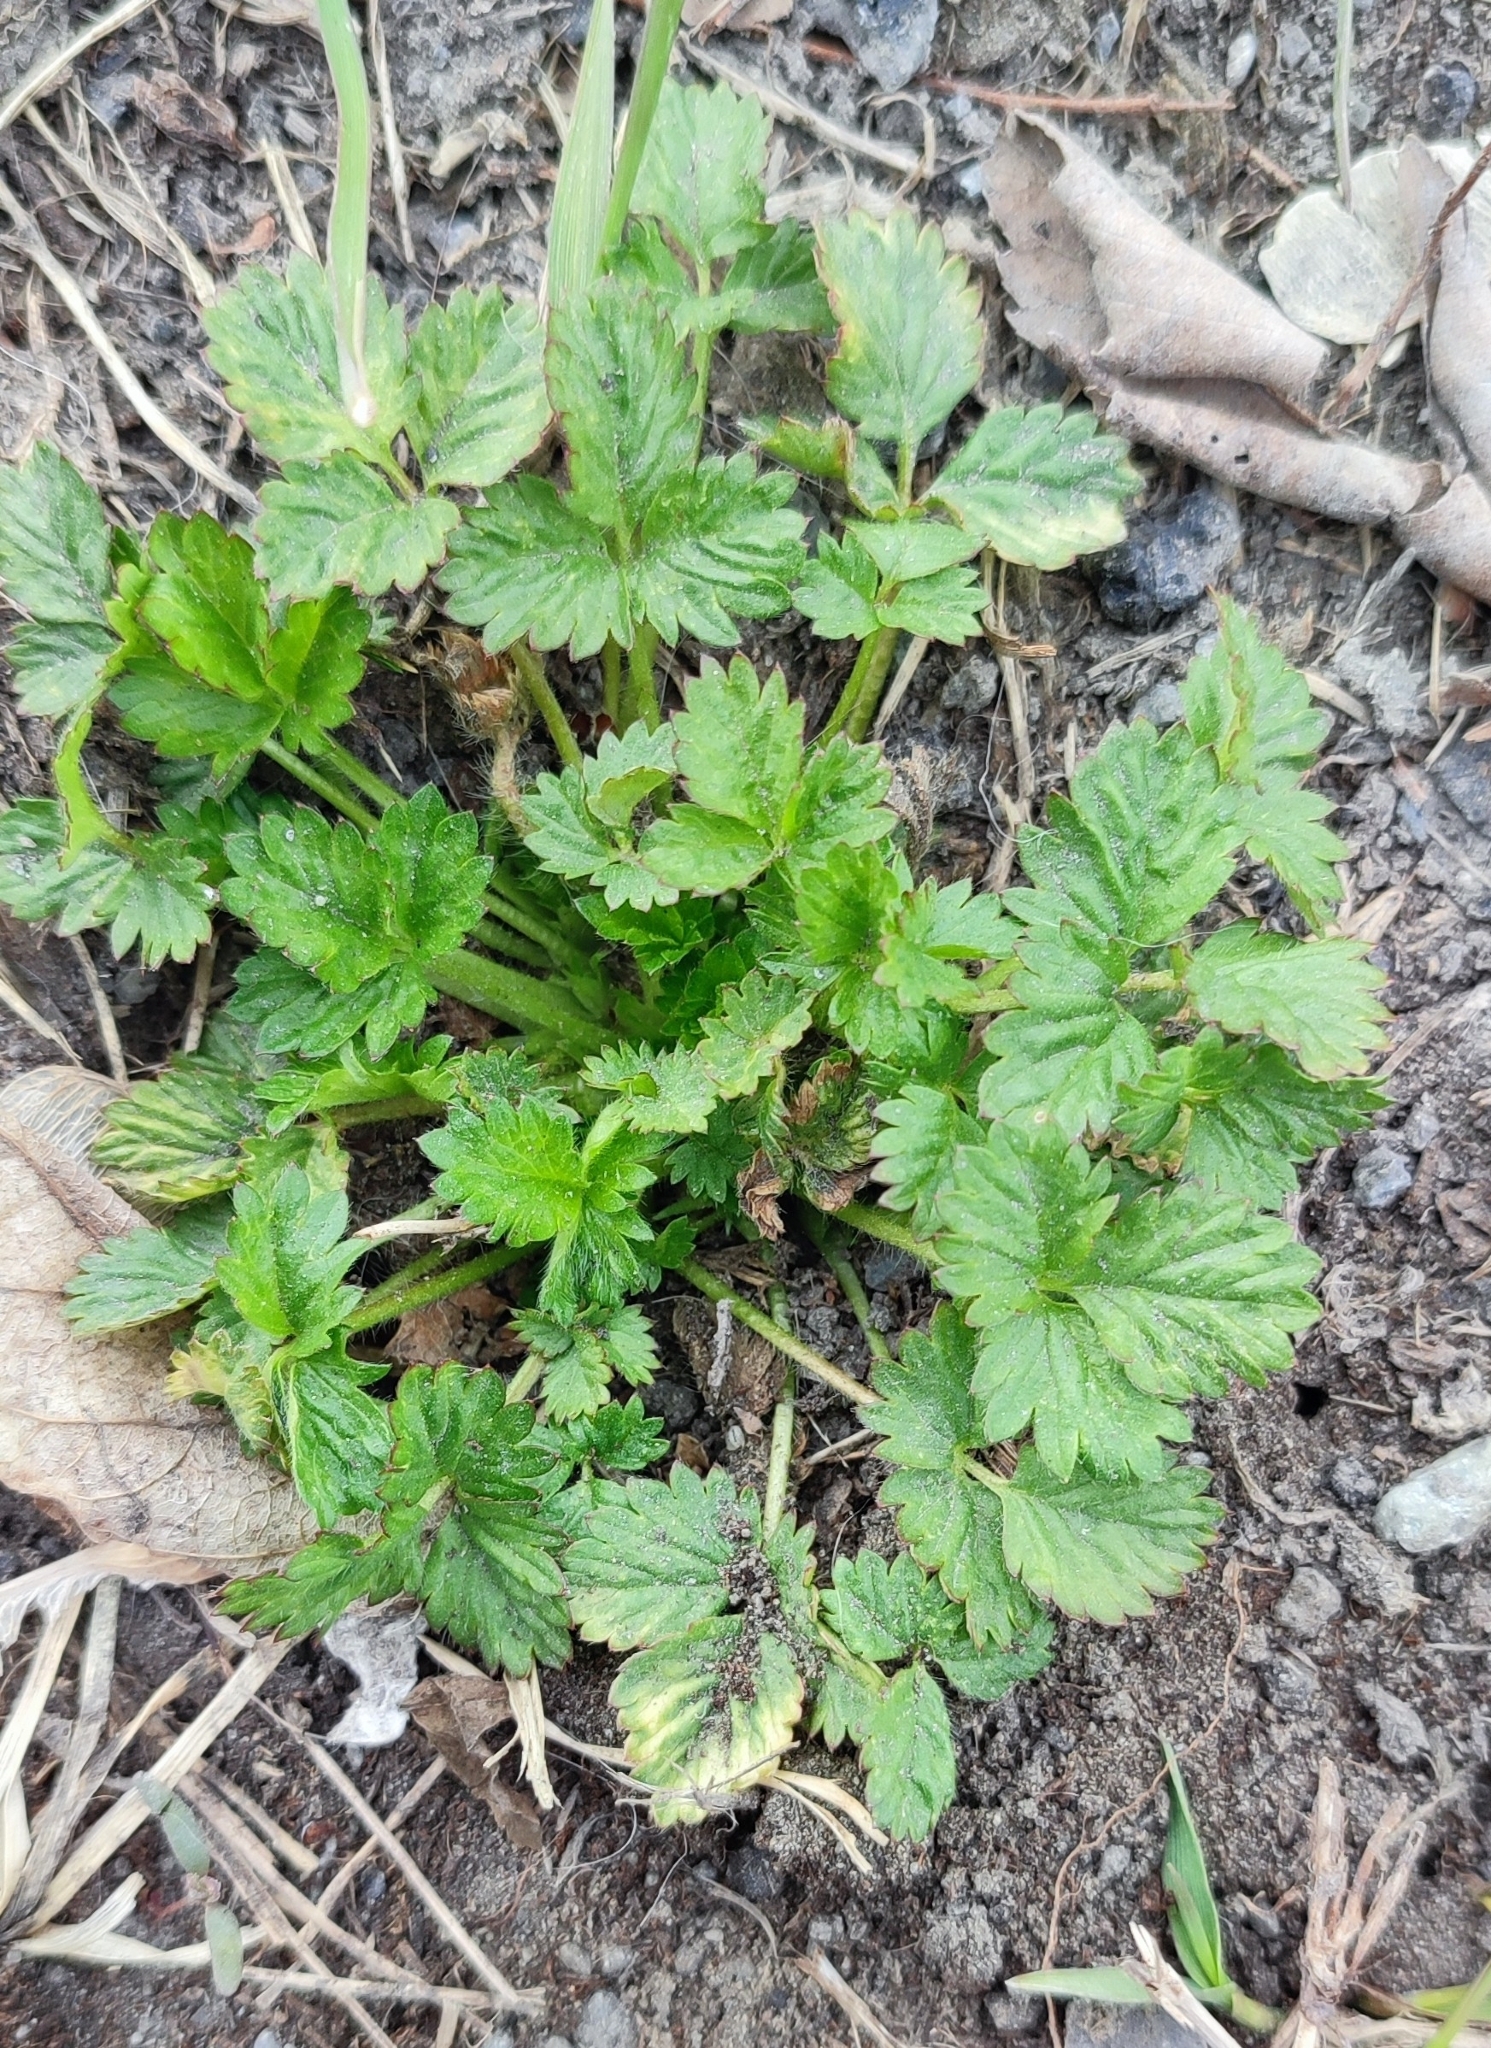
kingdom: Plantae
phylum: Tracheophyta
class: Magnoliopsida
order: Rosales
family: Rosaceae
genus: Potentilla
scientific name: Potentilla norvegica
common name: Ternate-leaved cinquefoil
